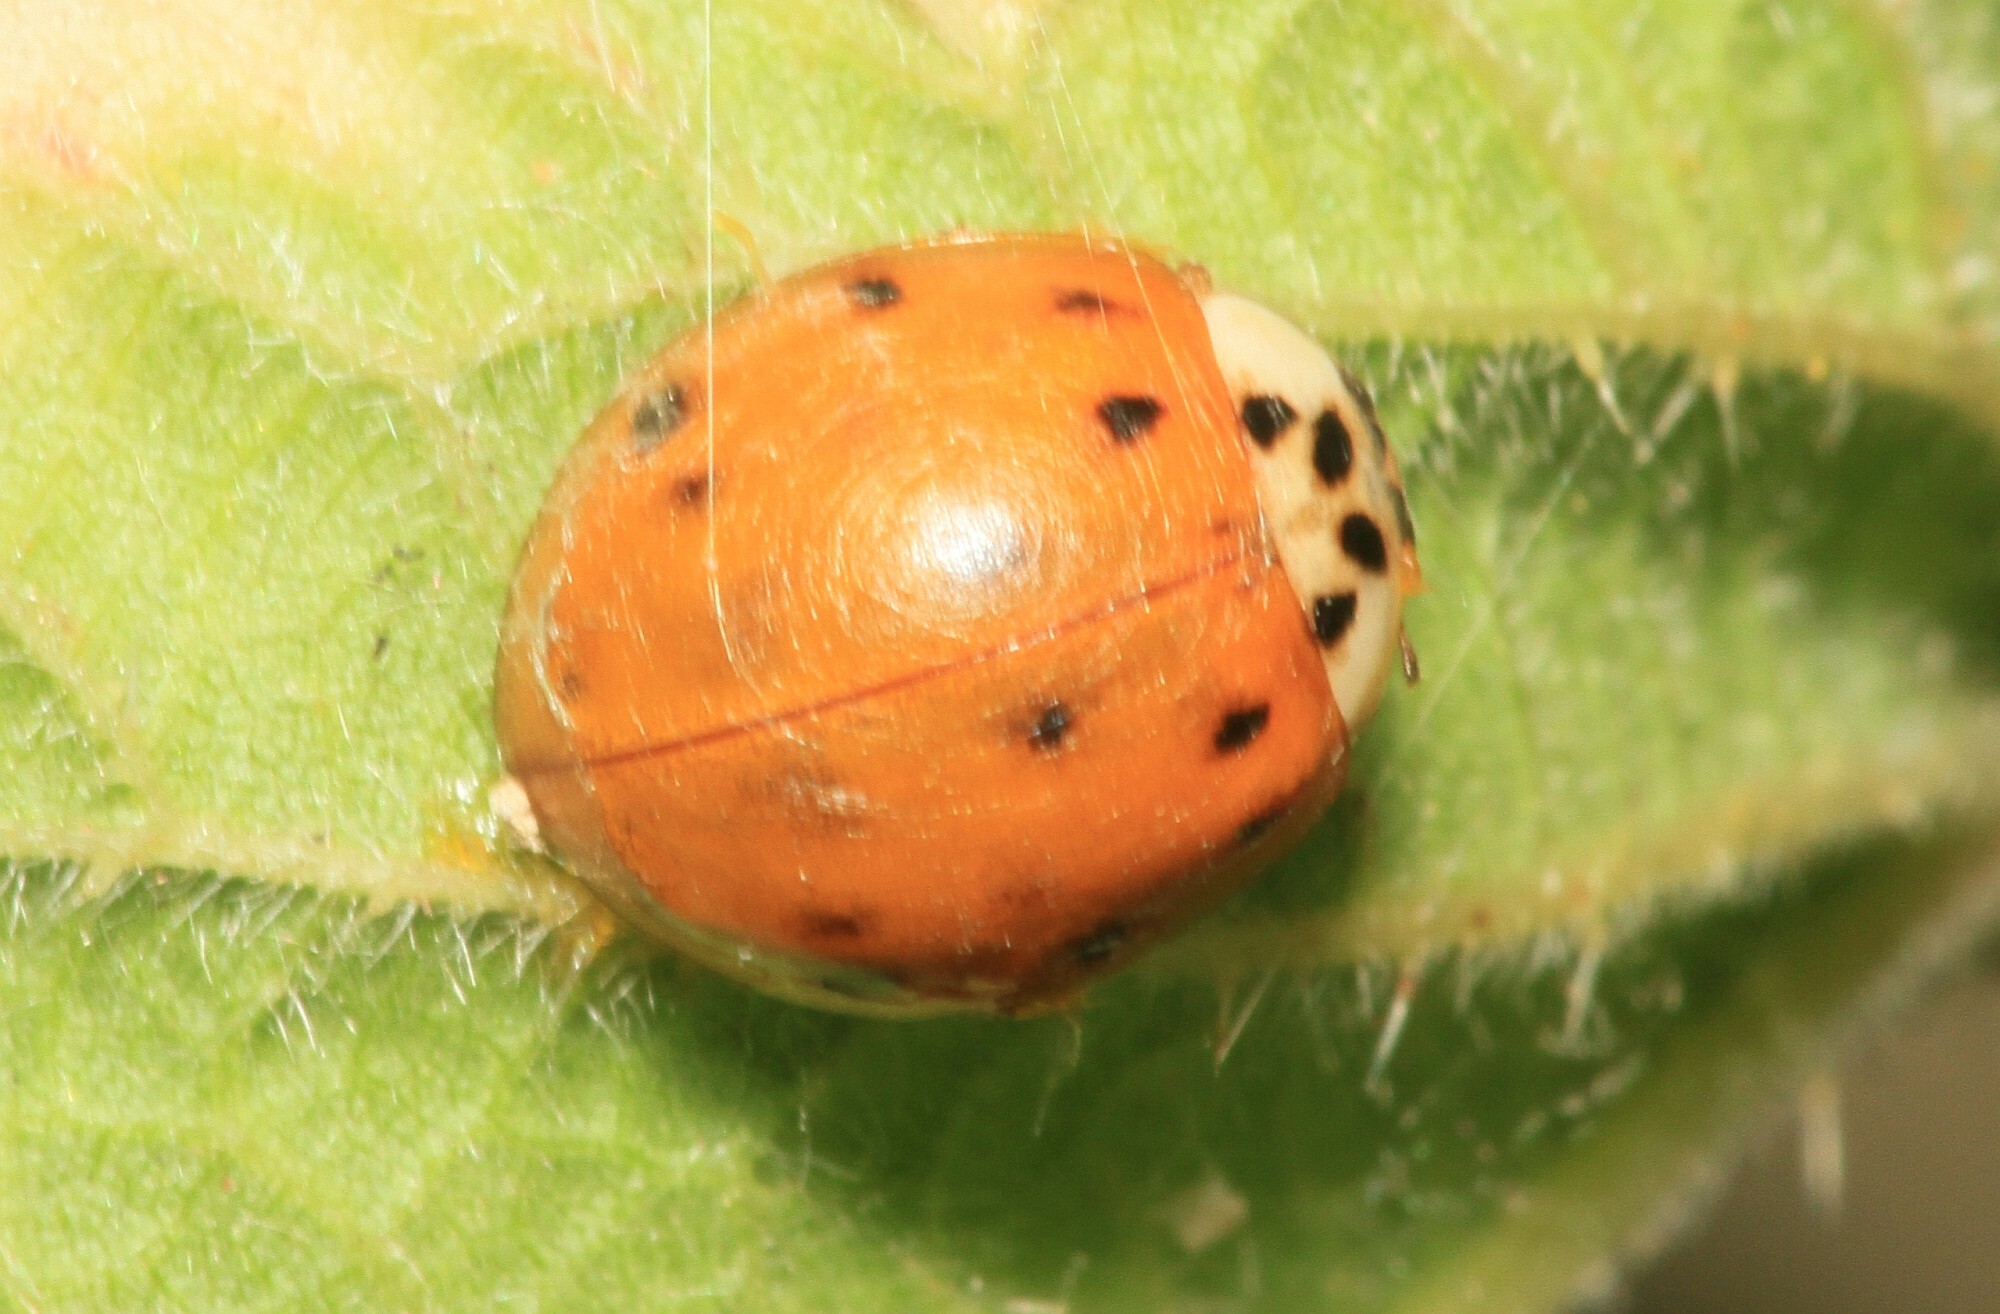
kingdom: Animalia
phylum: Arthropoda
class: Insecta
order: Coleoptera
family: Coccinellidae
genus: Harmonia
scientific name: Harmonia axyridis
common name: Harlequin ladybird
